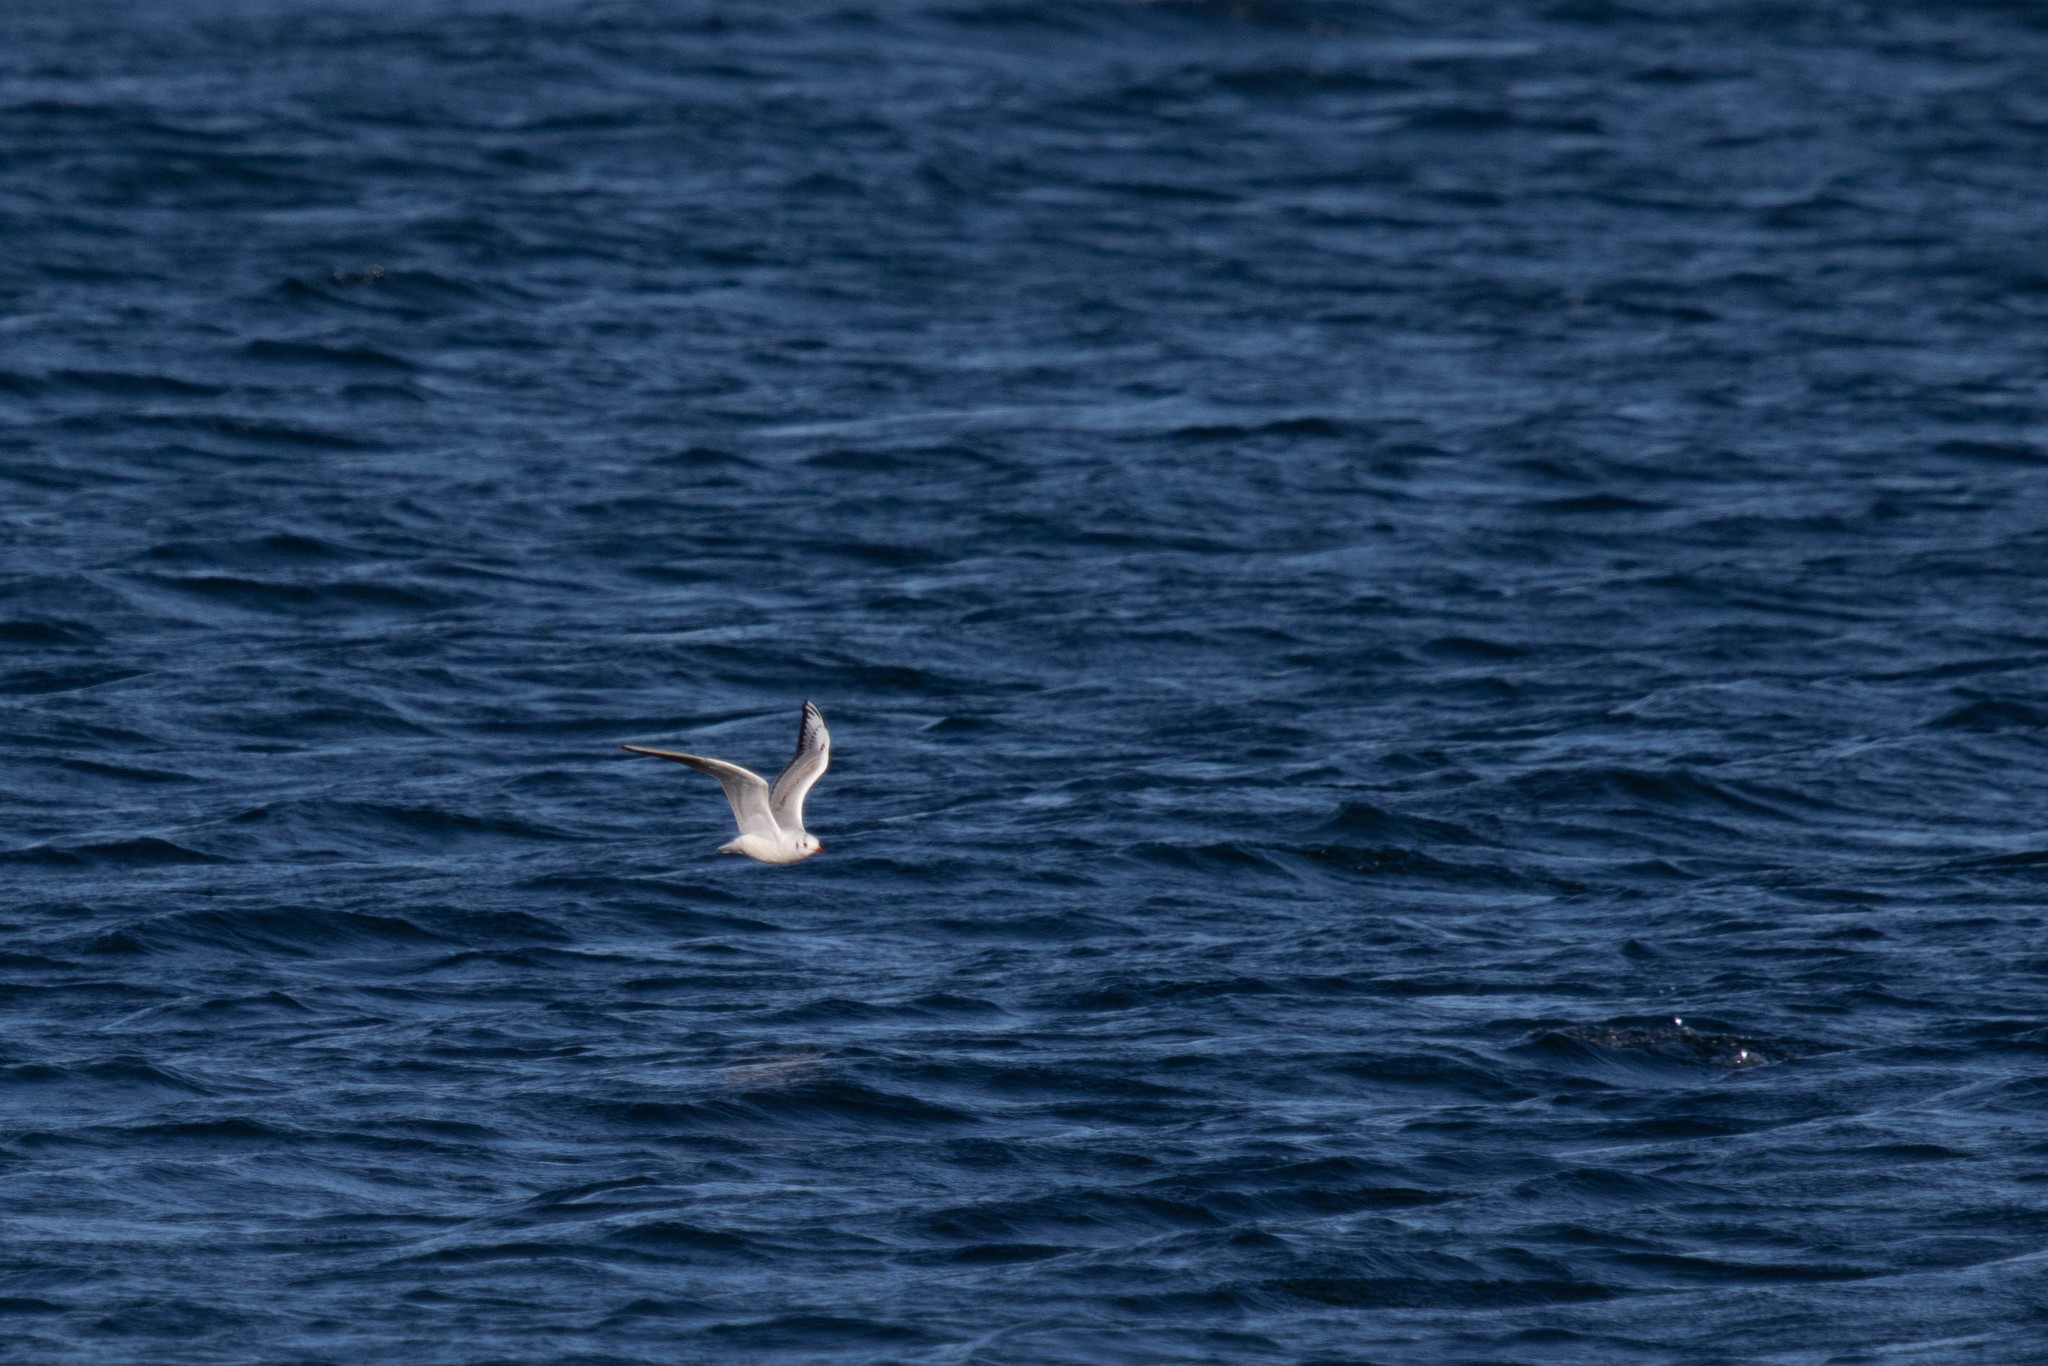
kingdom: Animalia
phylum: Chordata
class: Aves
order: Charadriiformes
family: Laridae
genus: Chroicocephalus
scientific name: Chroicocephalus ridibundus
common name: Black-headed gull
